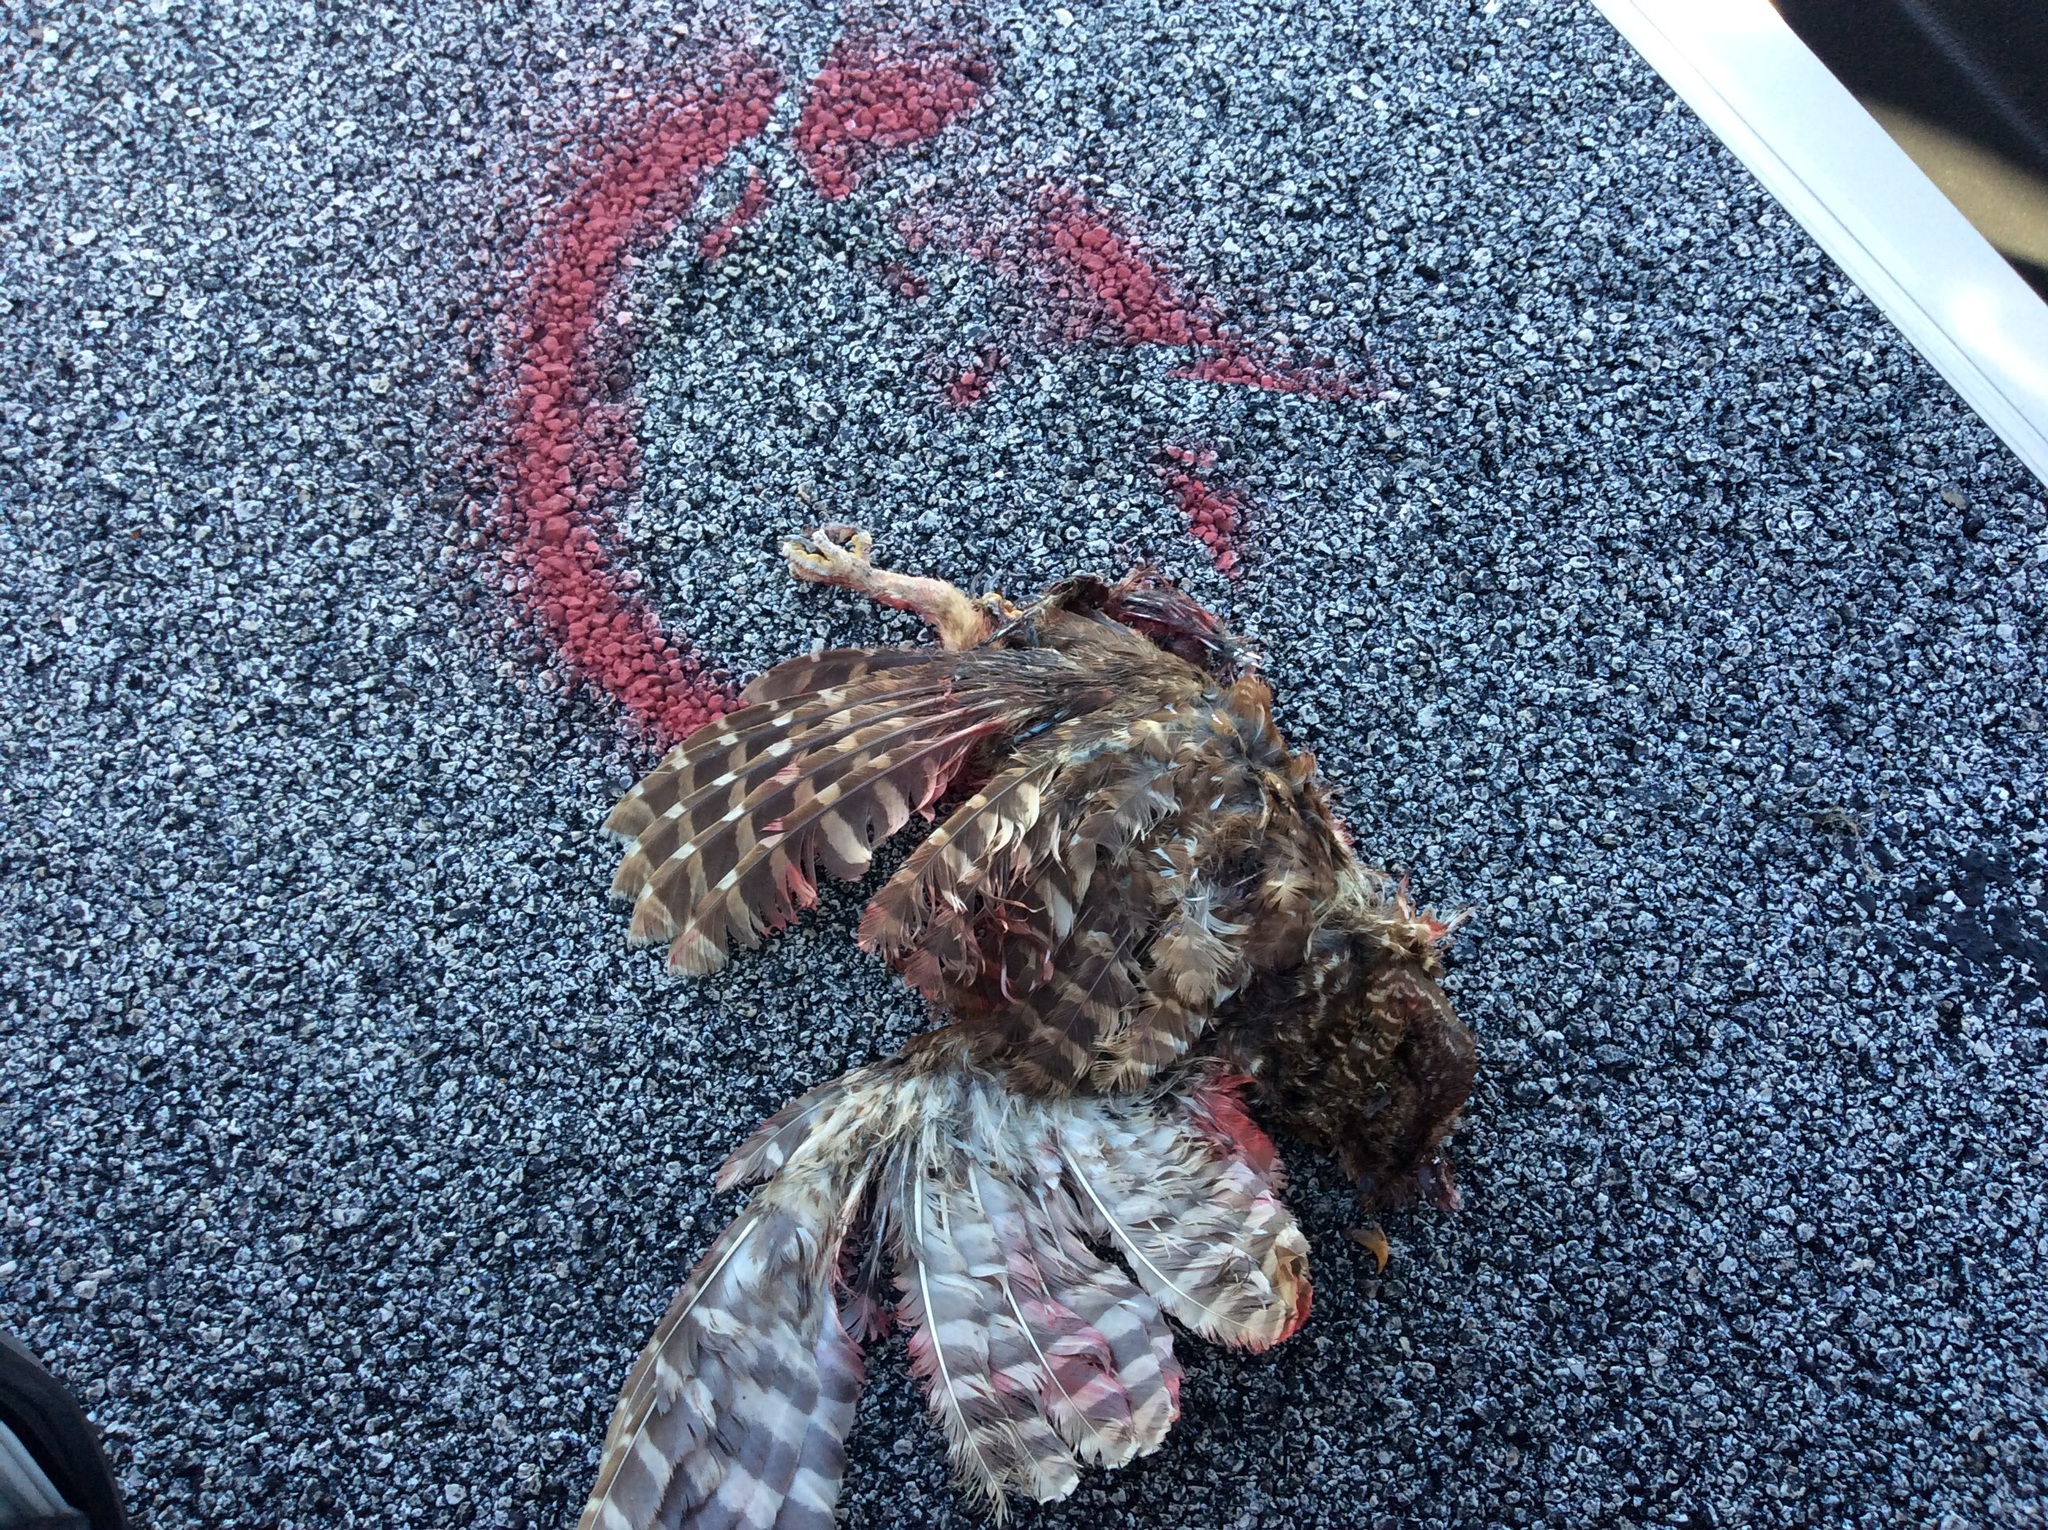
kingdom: Animalia
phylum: Chordata
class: Aves
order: Strigiformes
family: Strigidae
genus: Strix
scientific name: Strix varia
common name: Barred owl
